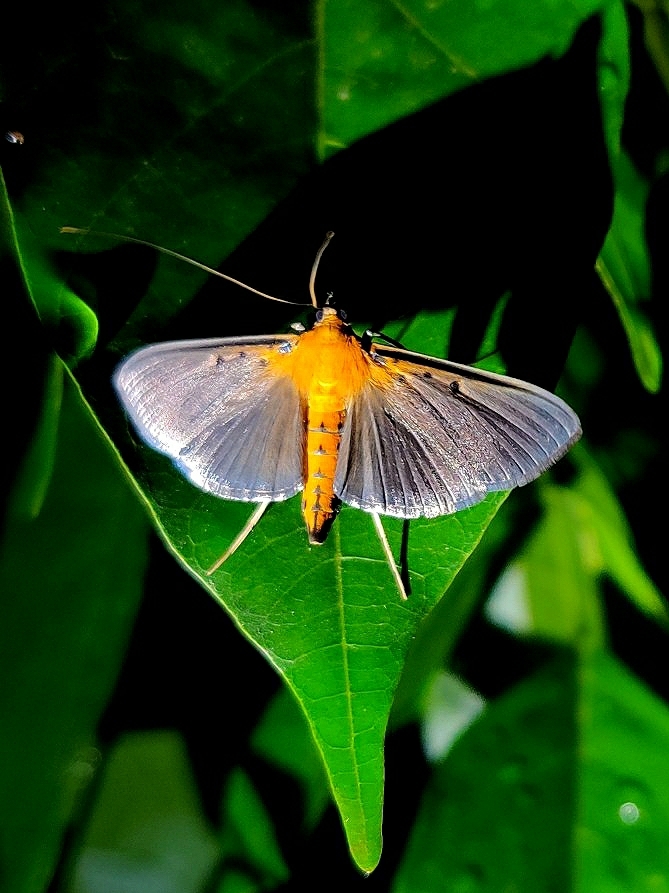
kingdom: Animalia
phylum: Arthropoda
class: Insecta
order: Lepidoptera
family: Crambidae
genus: Filodes
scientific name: Filodes fulvidorsalis
